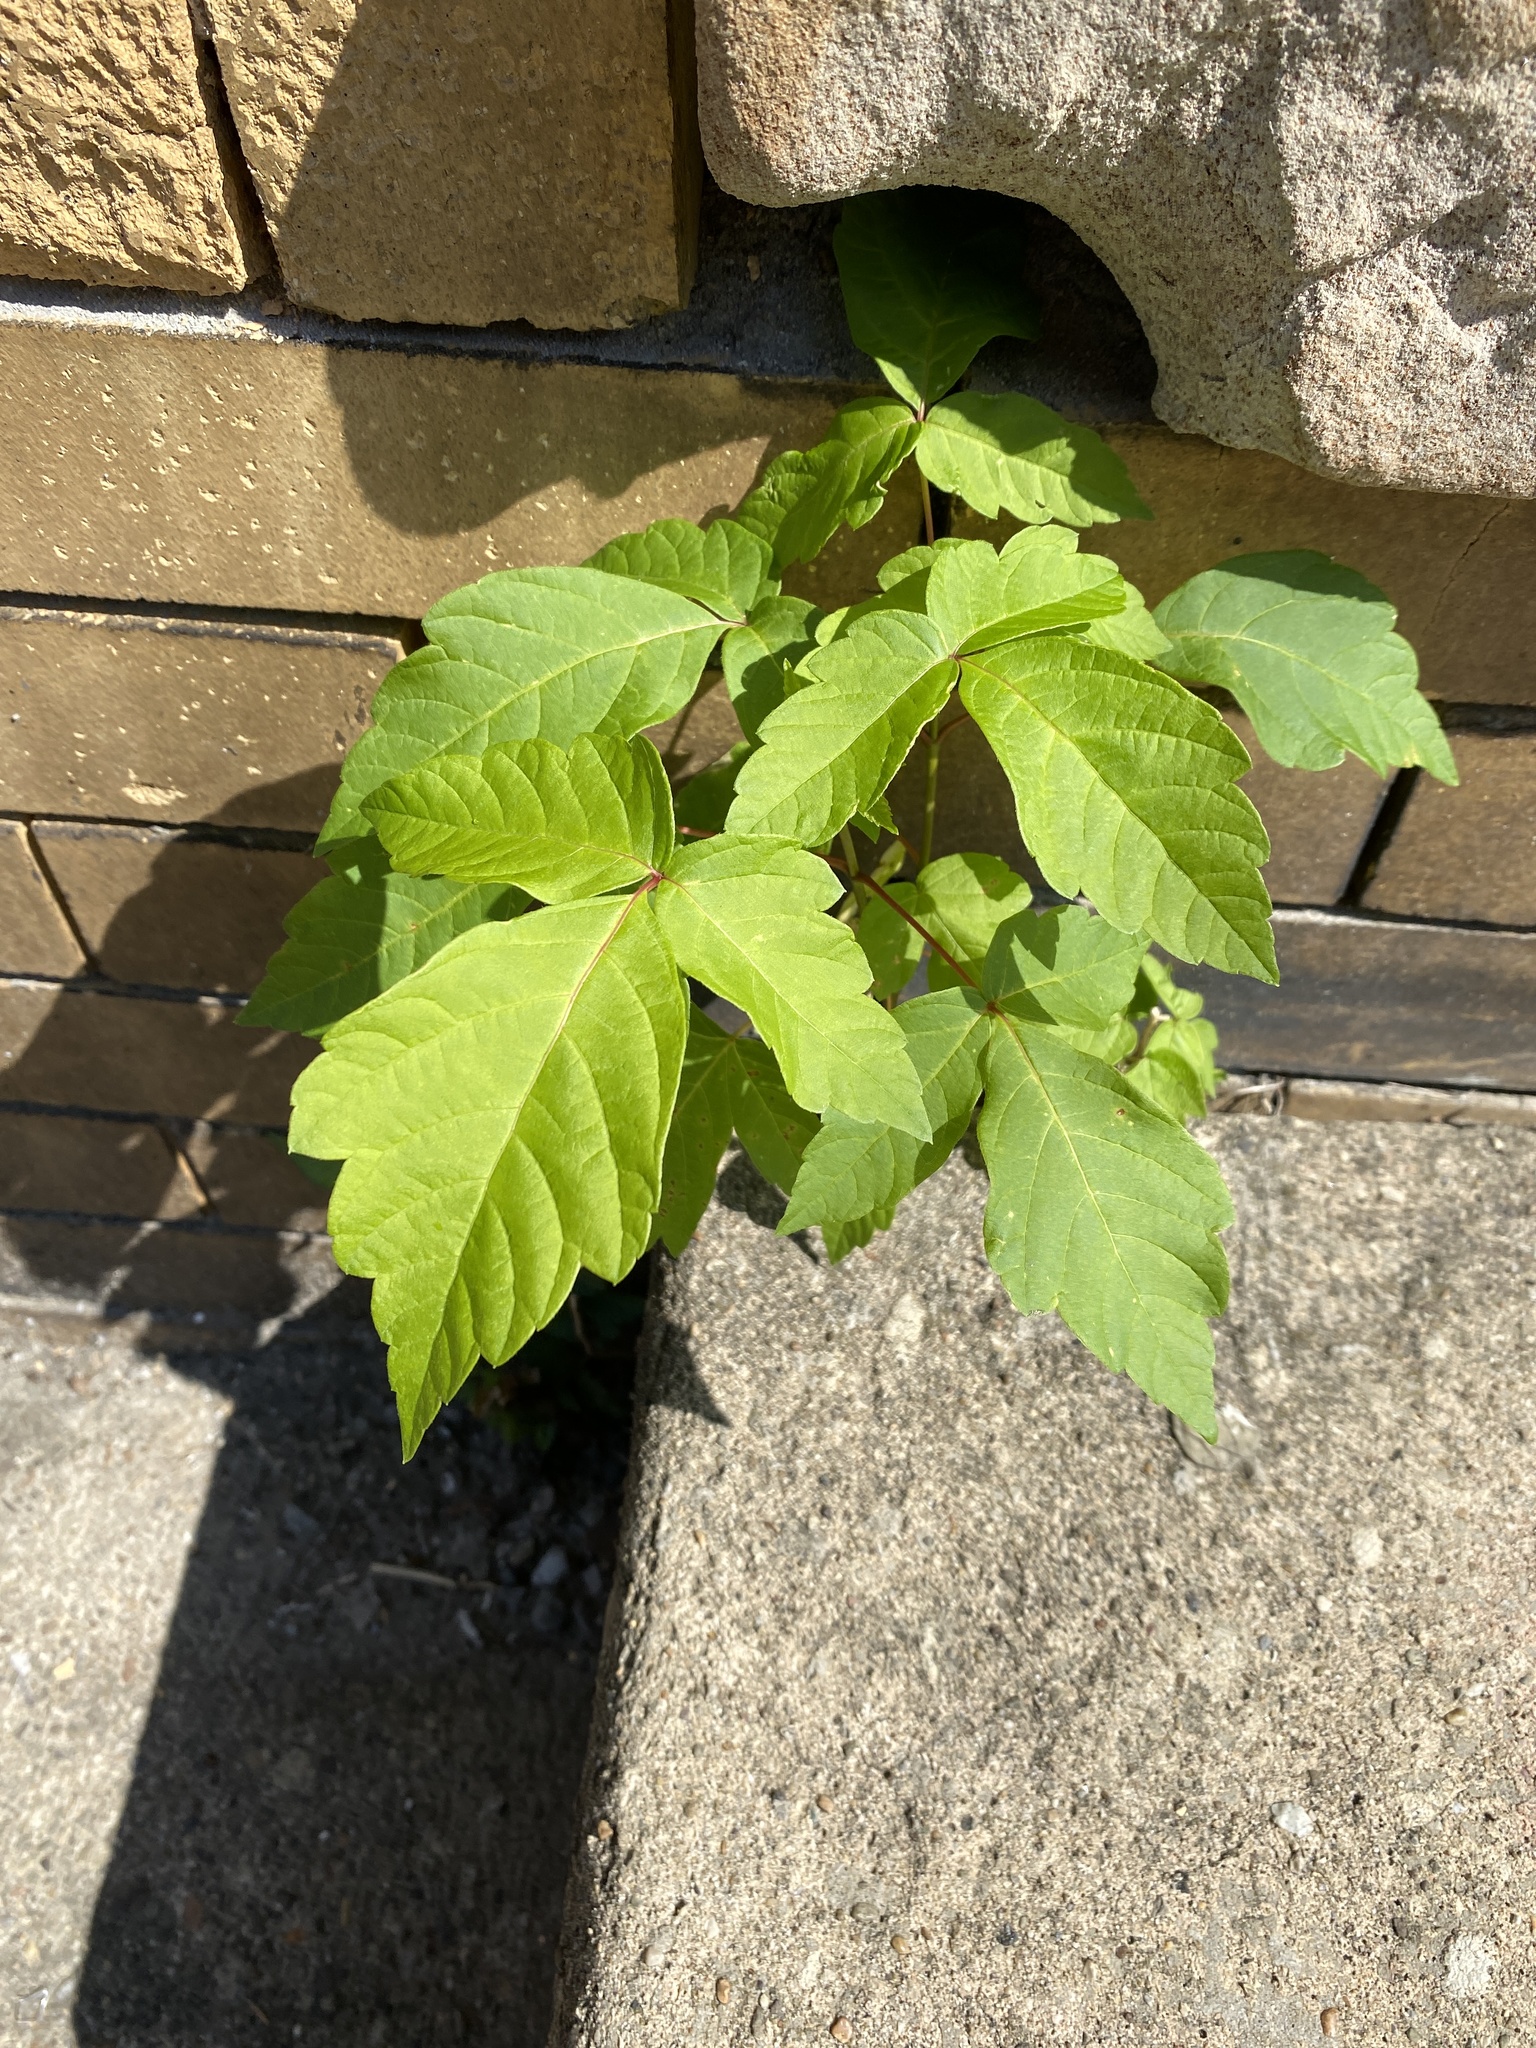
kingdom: Plantae
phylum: Tracheophyta
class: Magnoliopsida
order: Sapindales
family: Sapindaceae
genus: Acer
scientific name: Acer negundo
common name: Ashleaf maple
